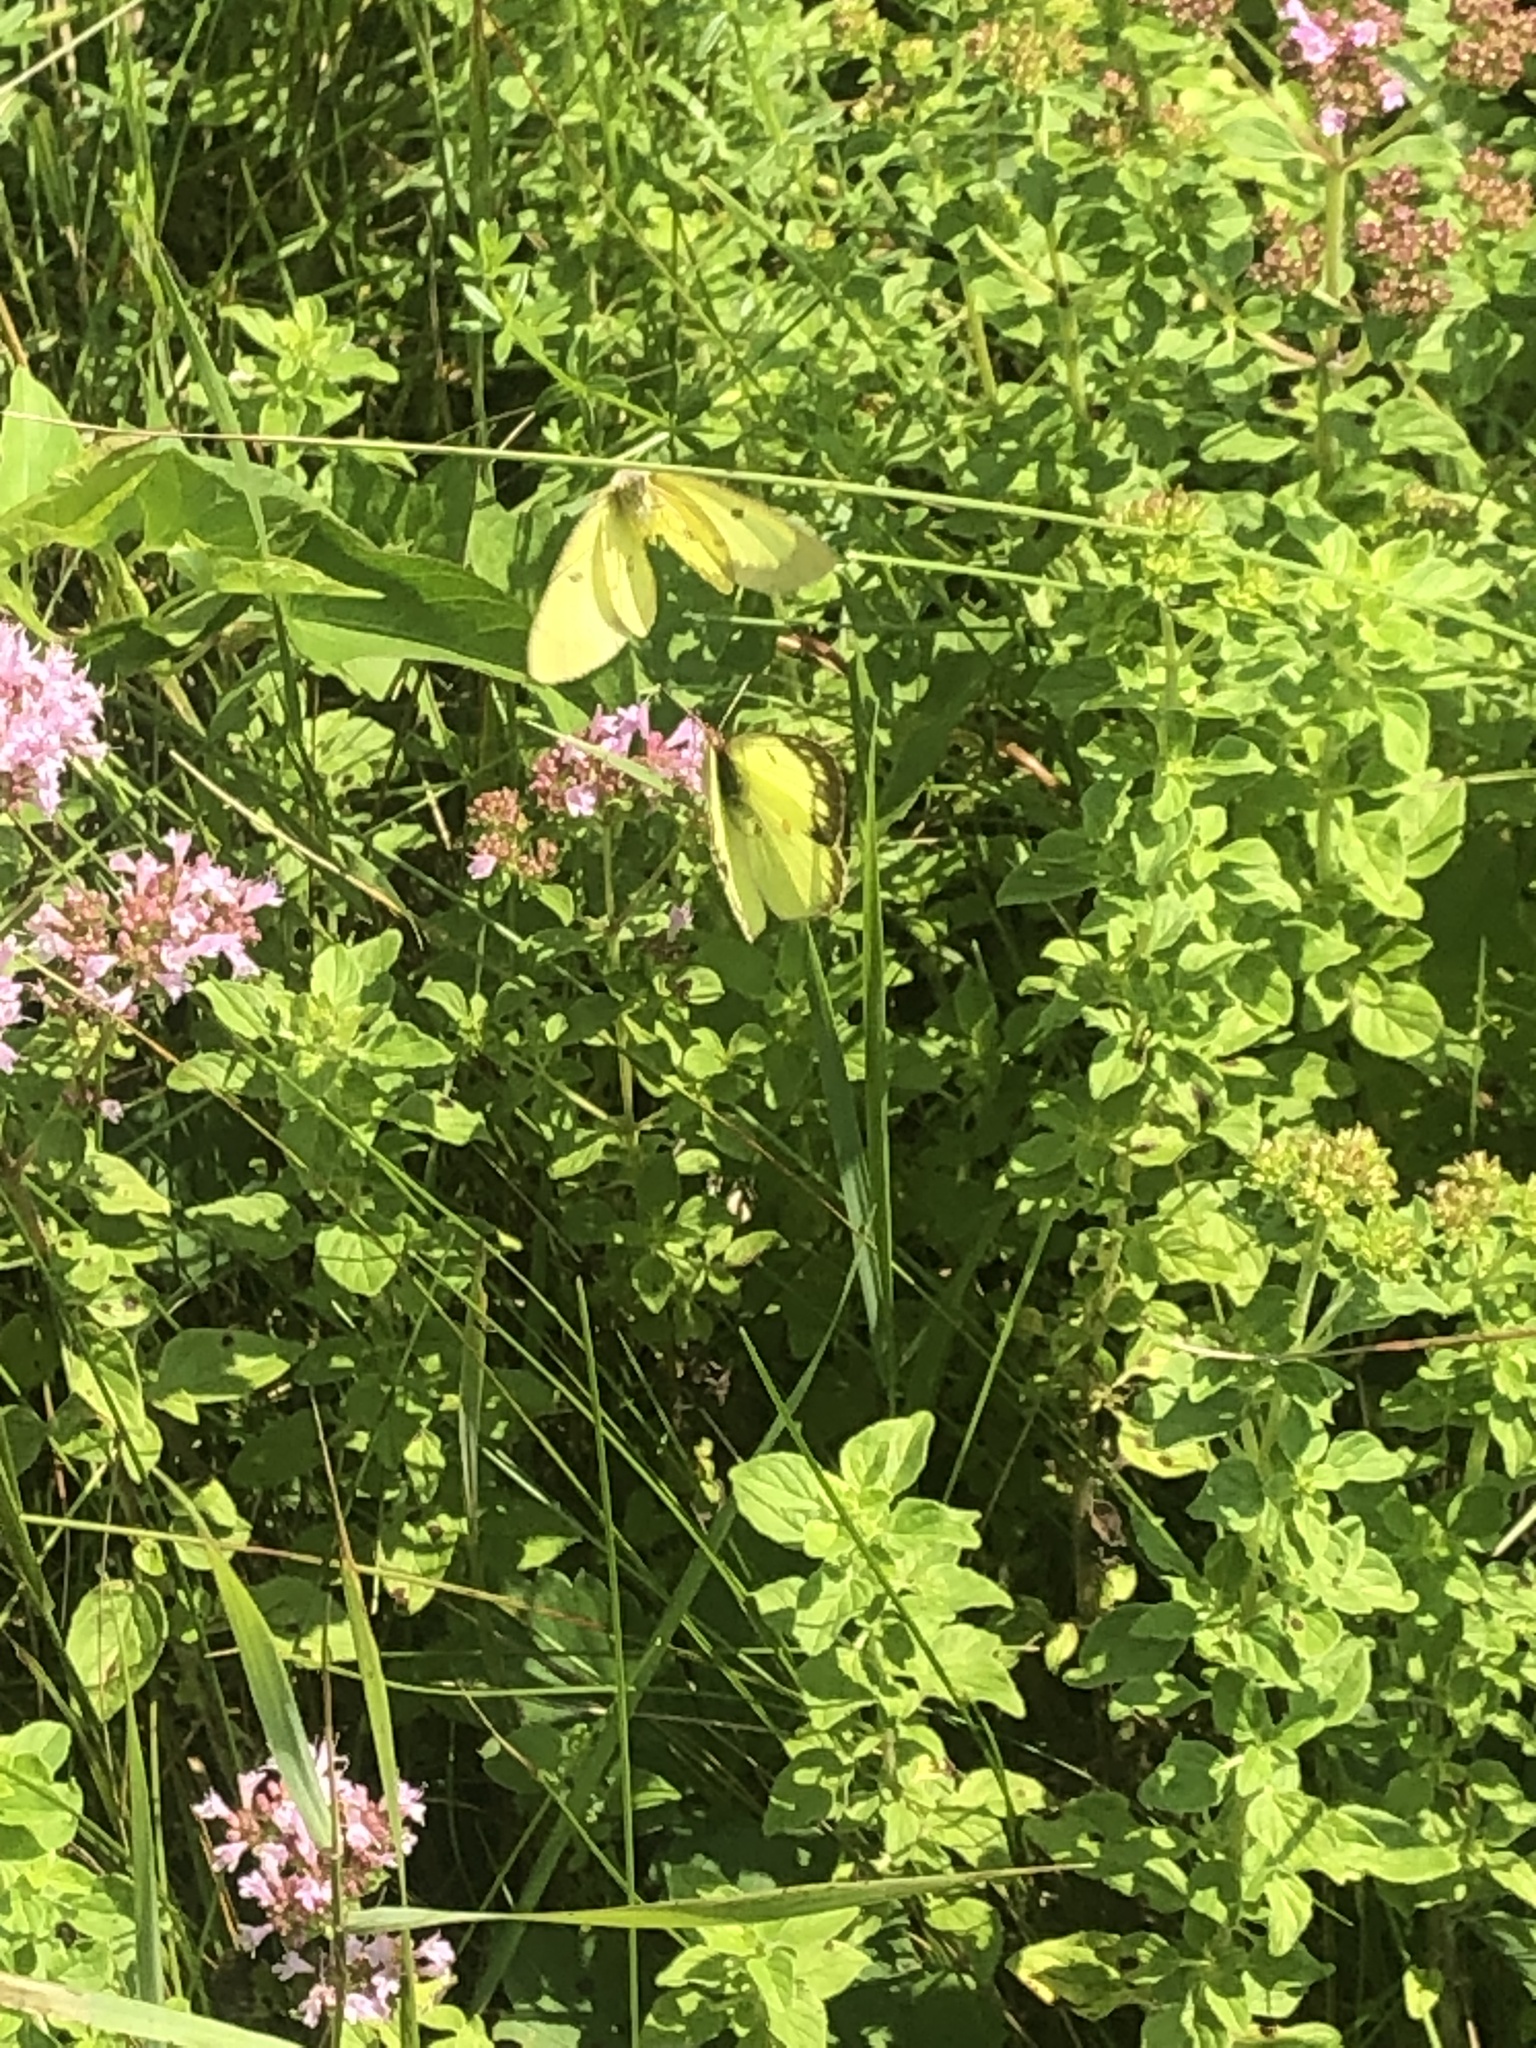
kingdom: Animalia
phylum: Arthropoda
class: Insecta
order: Lepidoptera
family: Pieridae
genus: Colias
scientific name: Colias philodice
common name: Clouded sulphur
